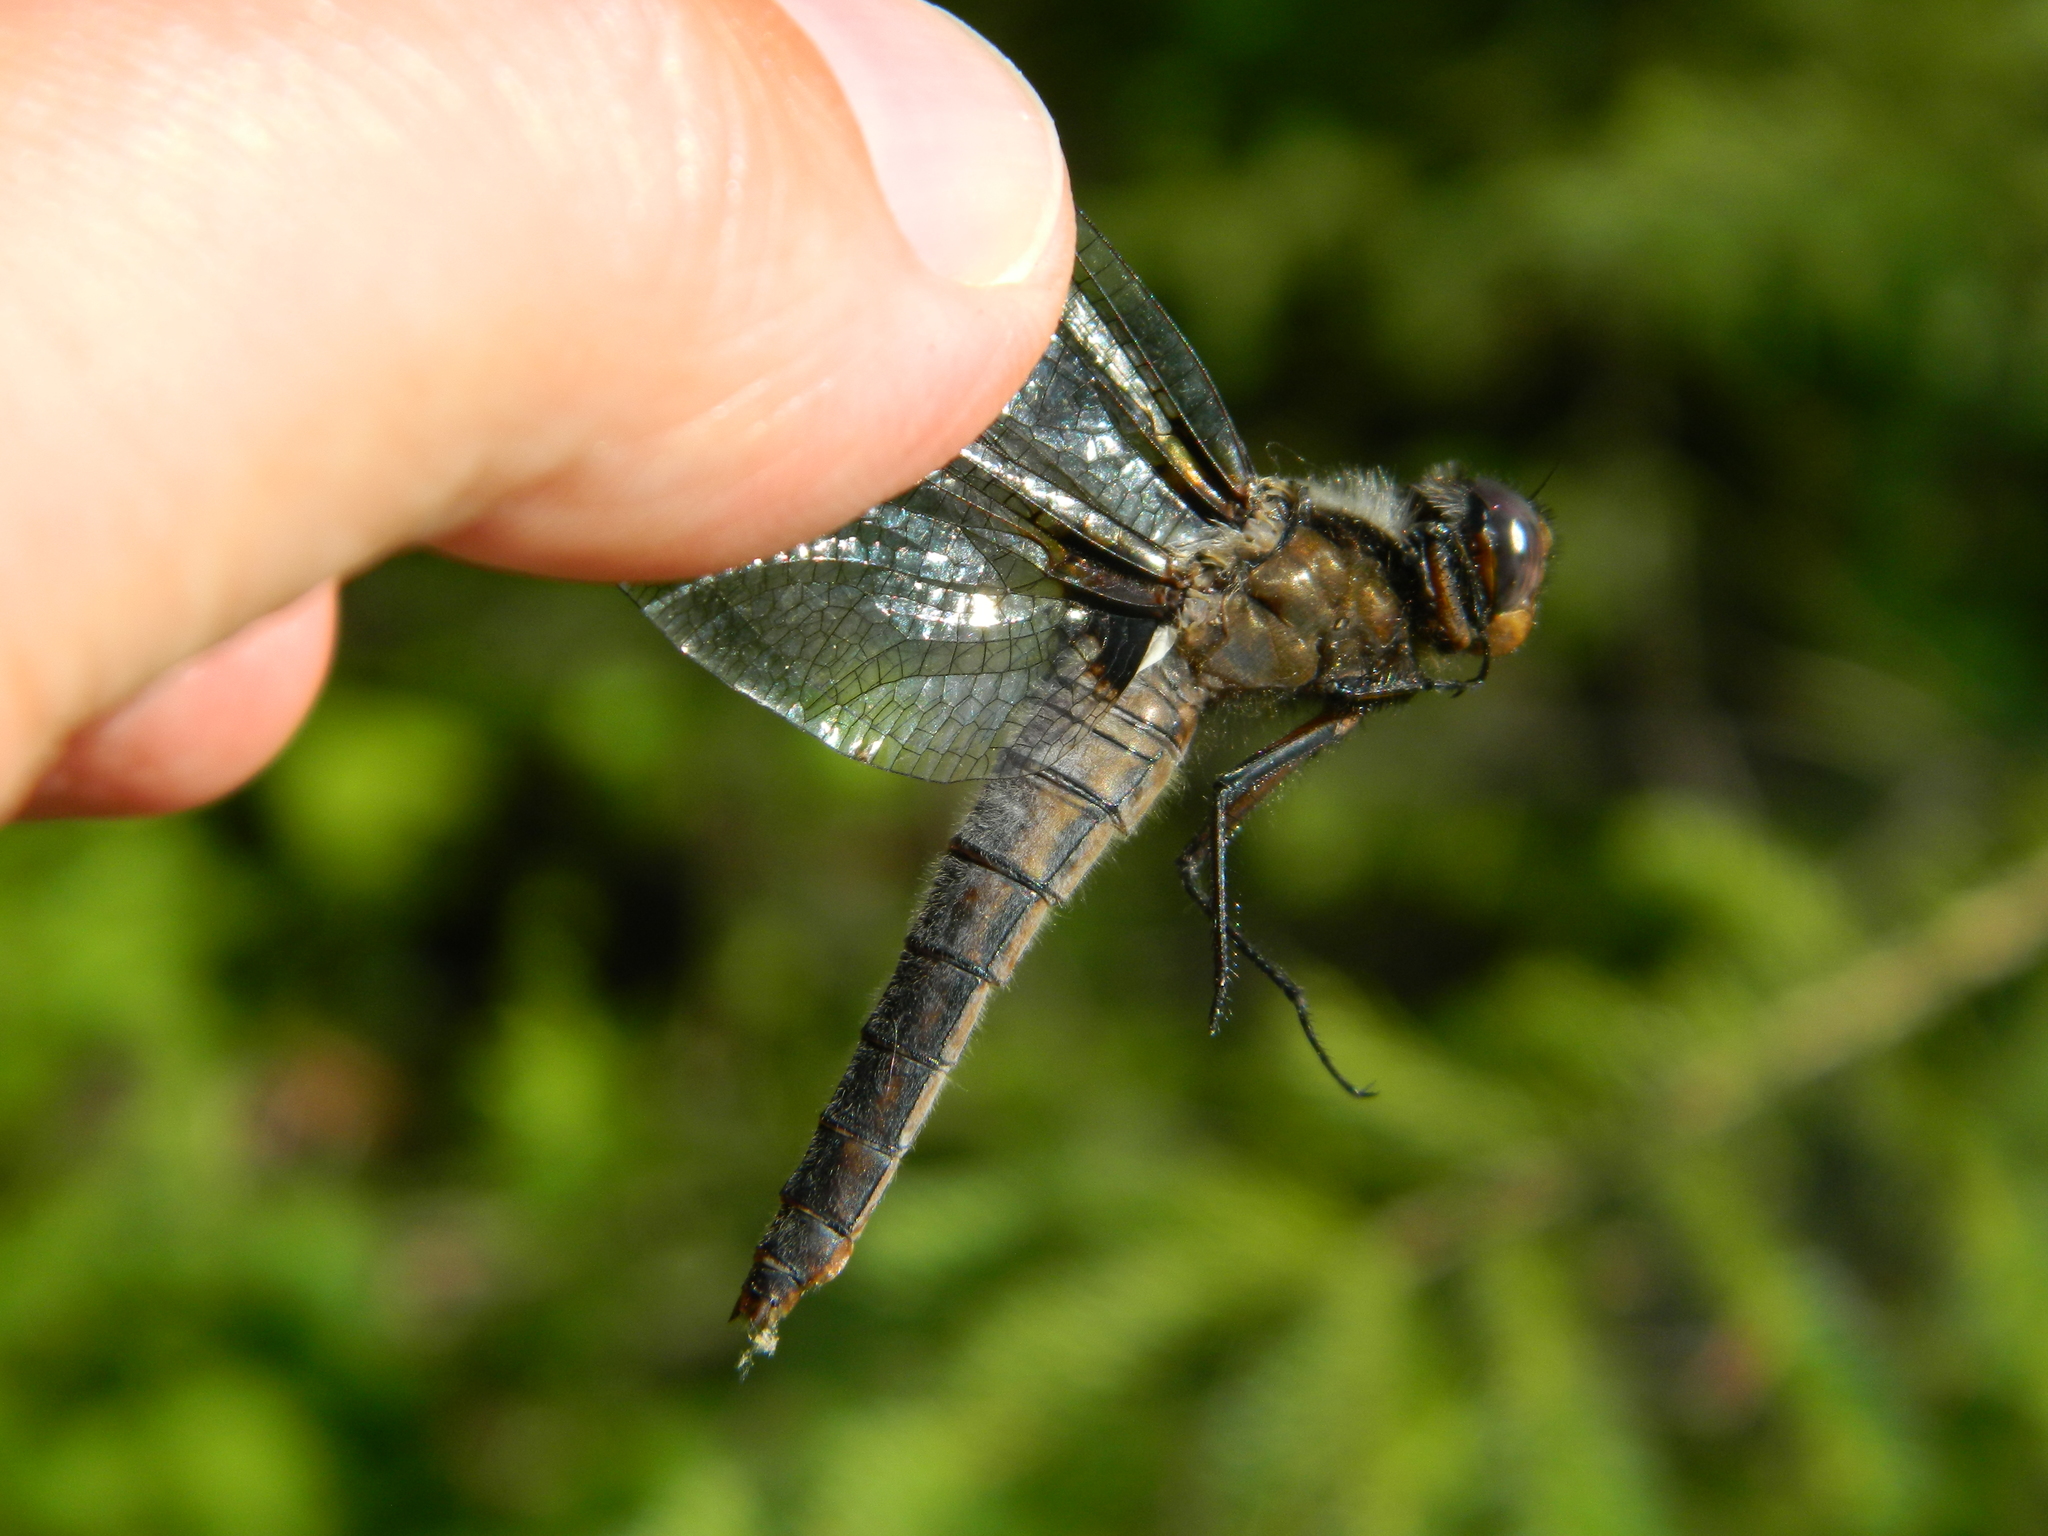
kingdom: Animalia
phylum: Arthropoda
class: Insecta
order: Odonata
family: Libellulidae
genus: Ladona
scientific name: Ladona julia
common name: Chalk-fronted corporal
